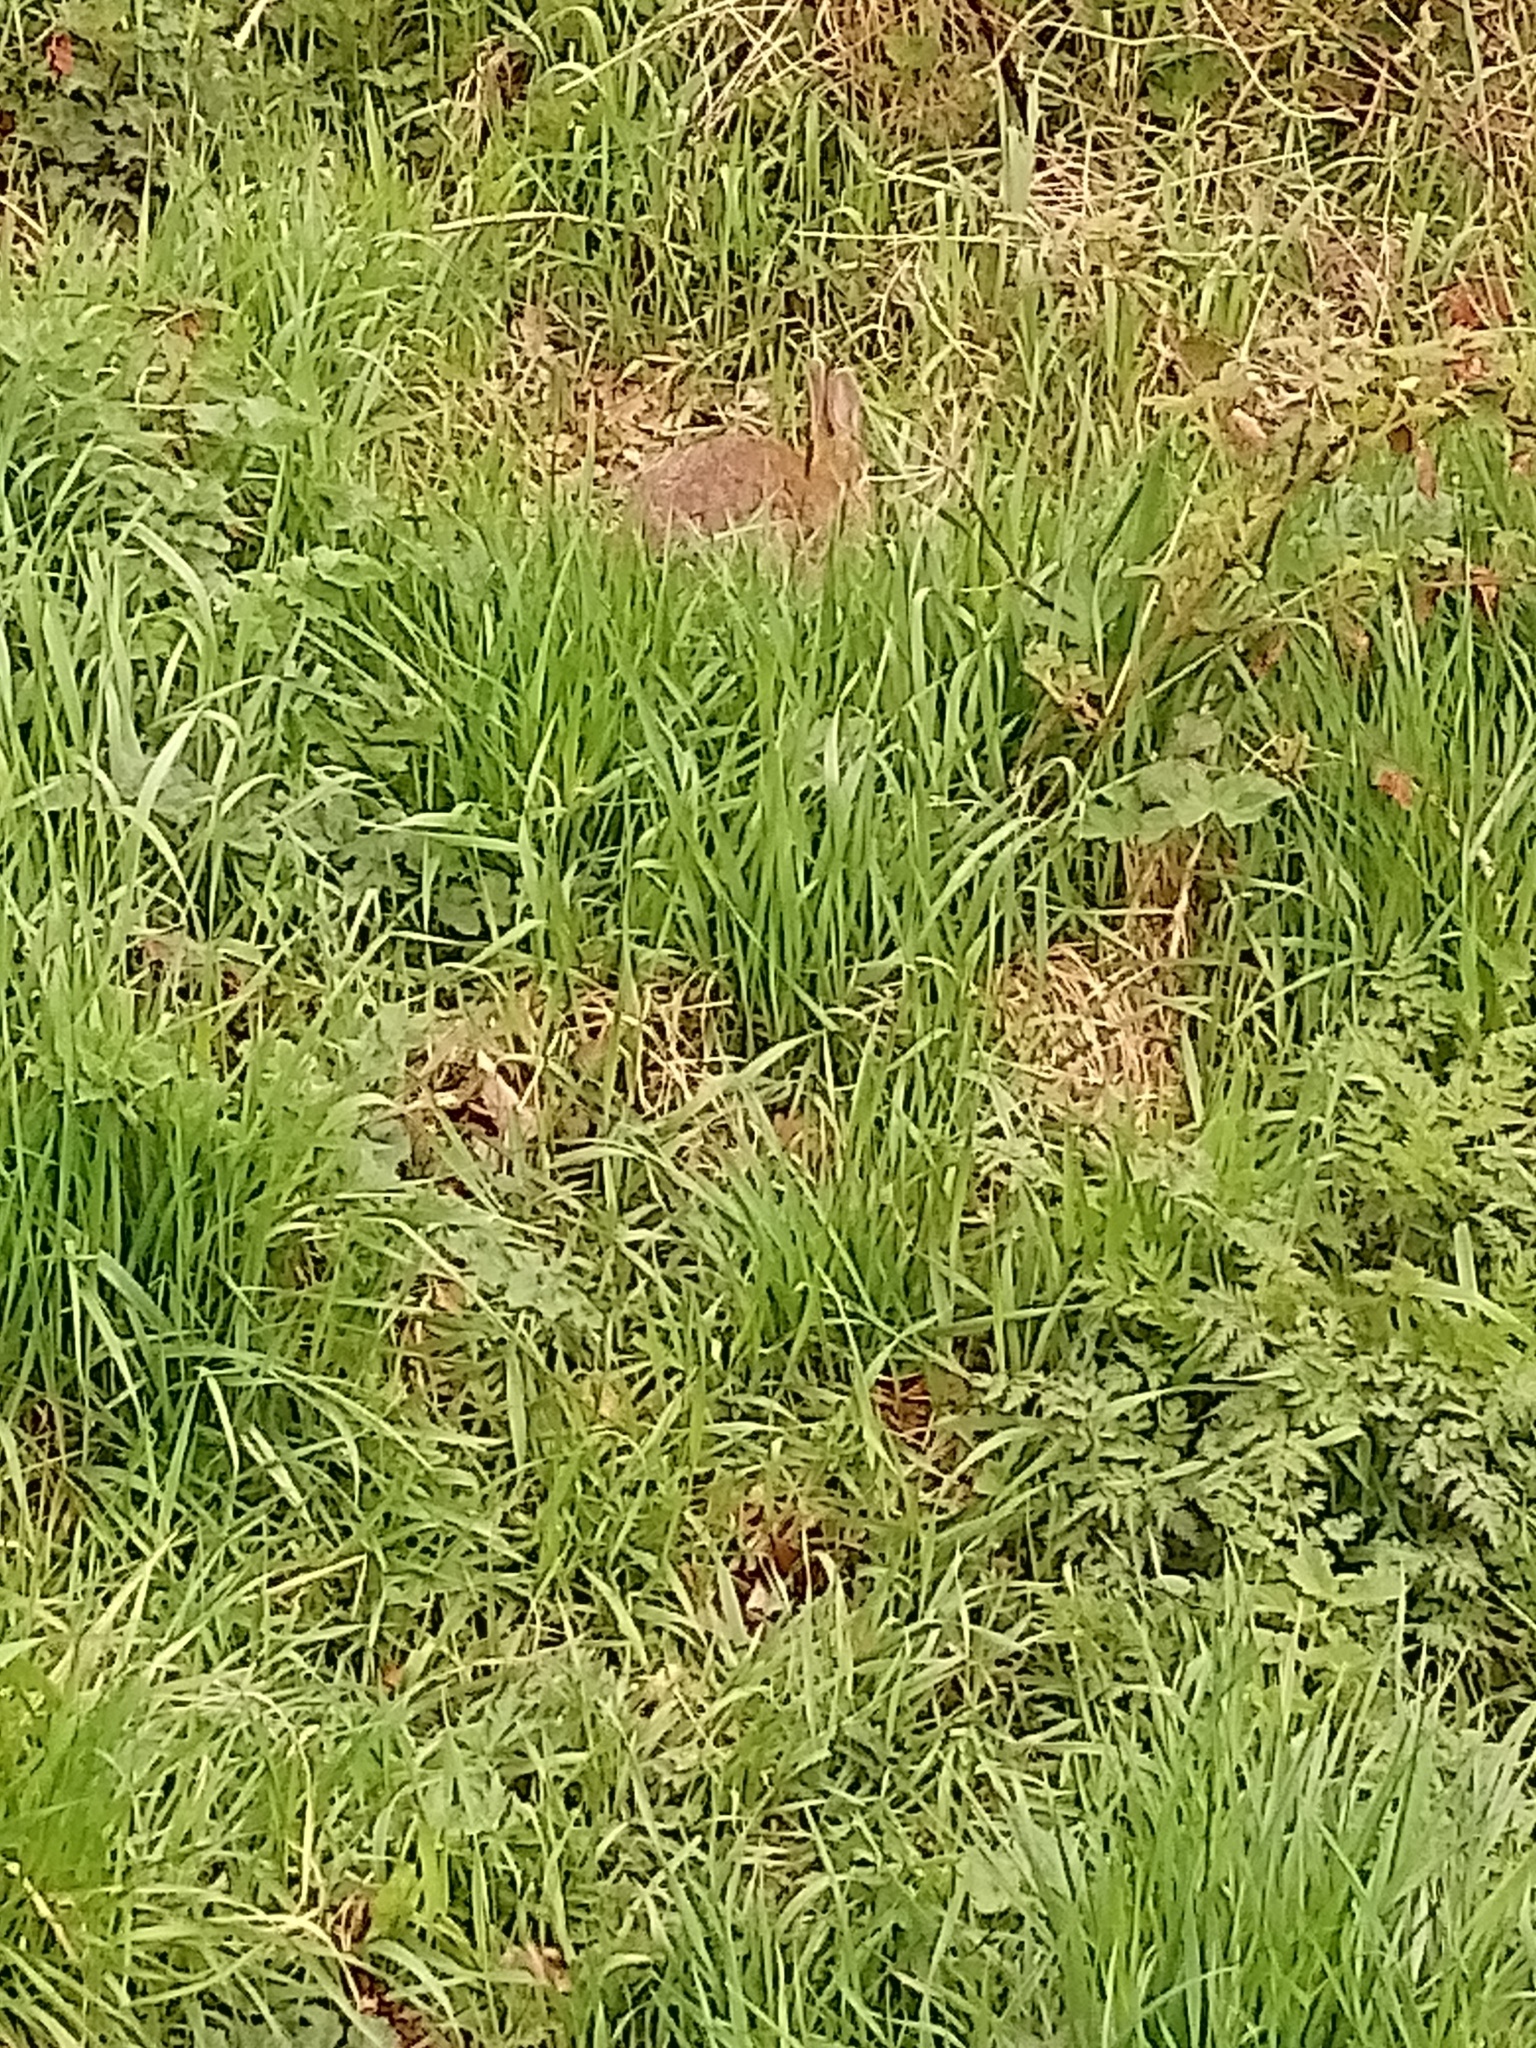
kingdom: Animalia
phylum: Chordata
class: Mammalia
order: Lagomorpha
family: Leporidae
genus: Oryctolagus
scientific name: Oryctolagus cuniculus
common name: European rabbit
